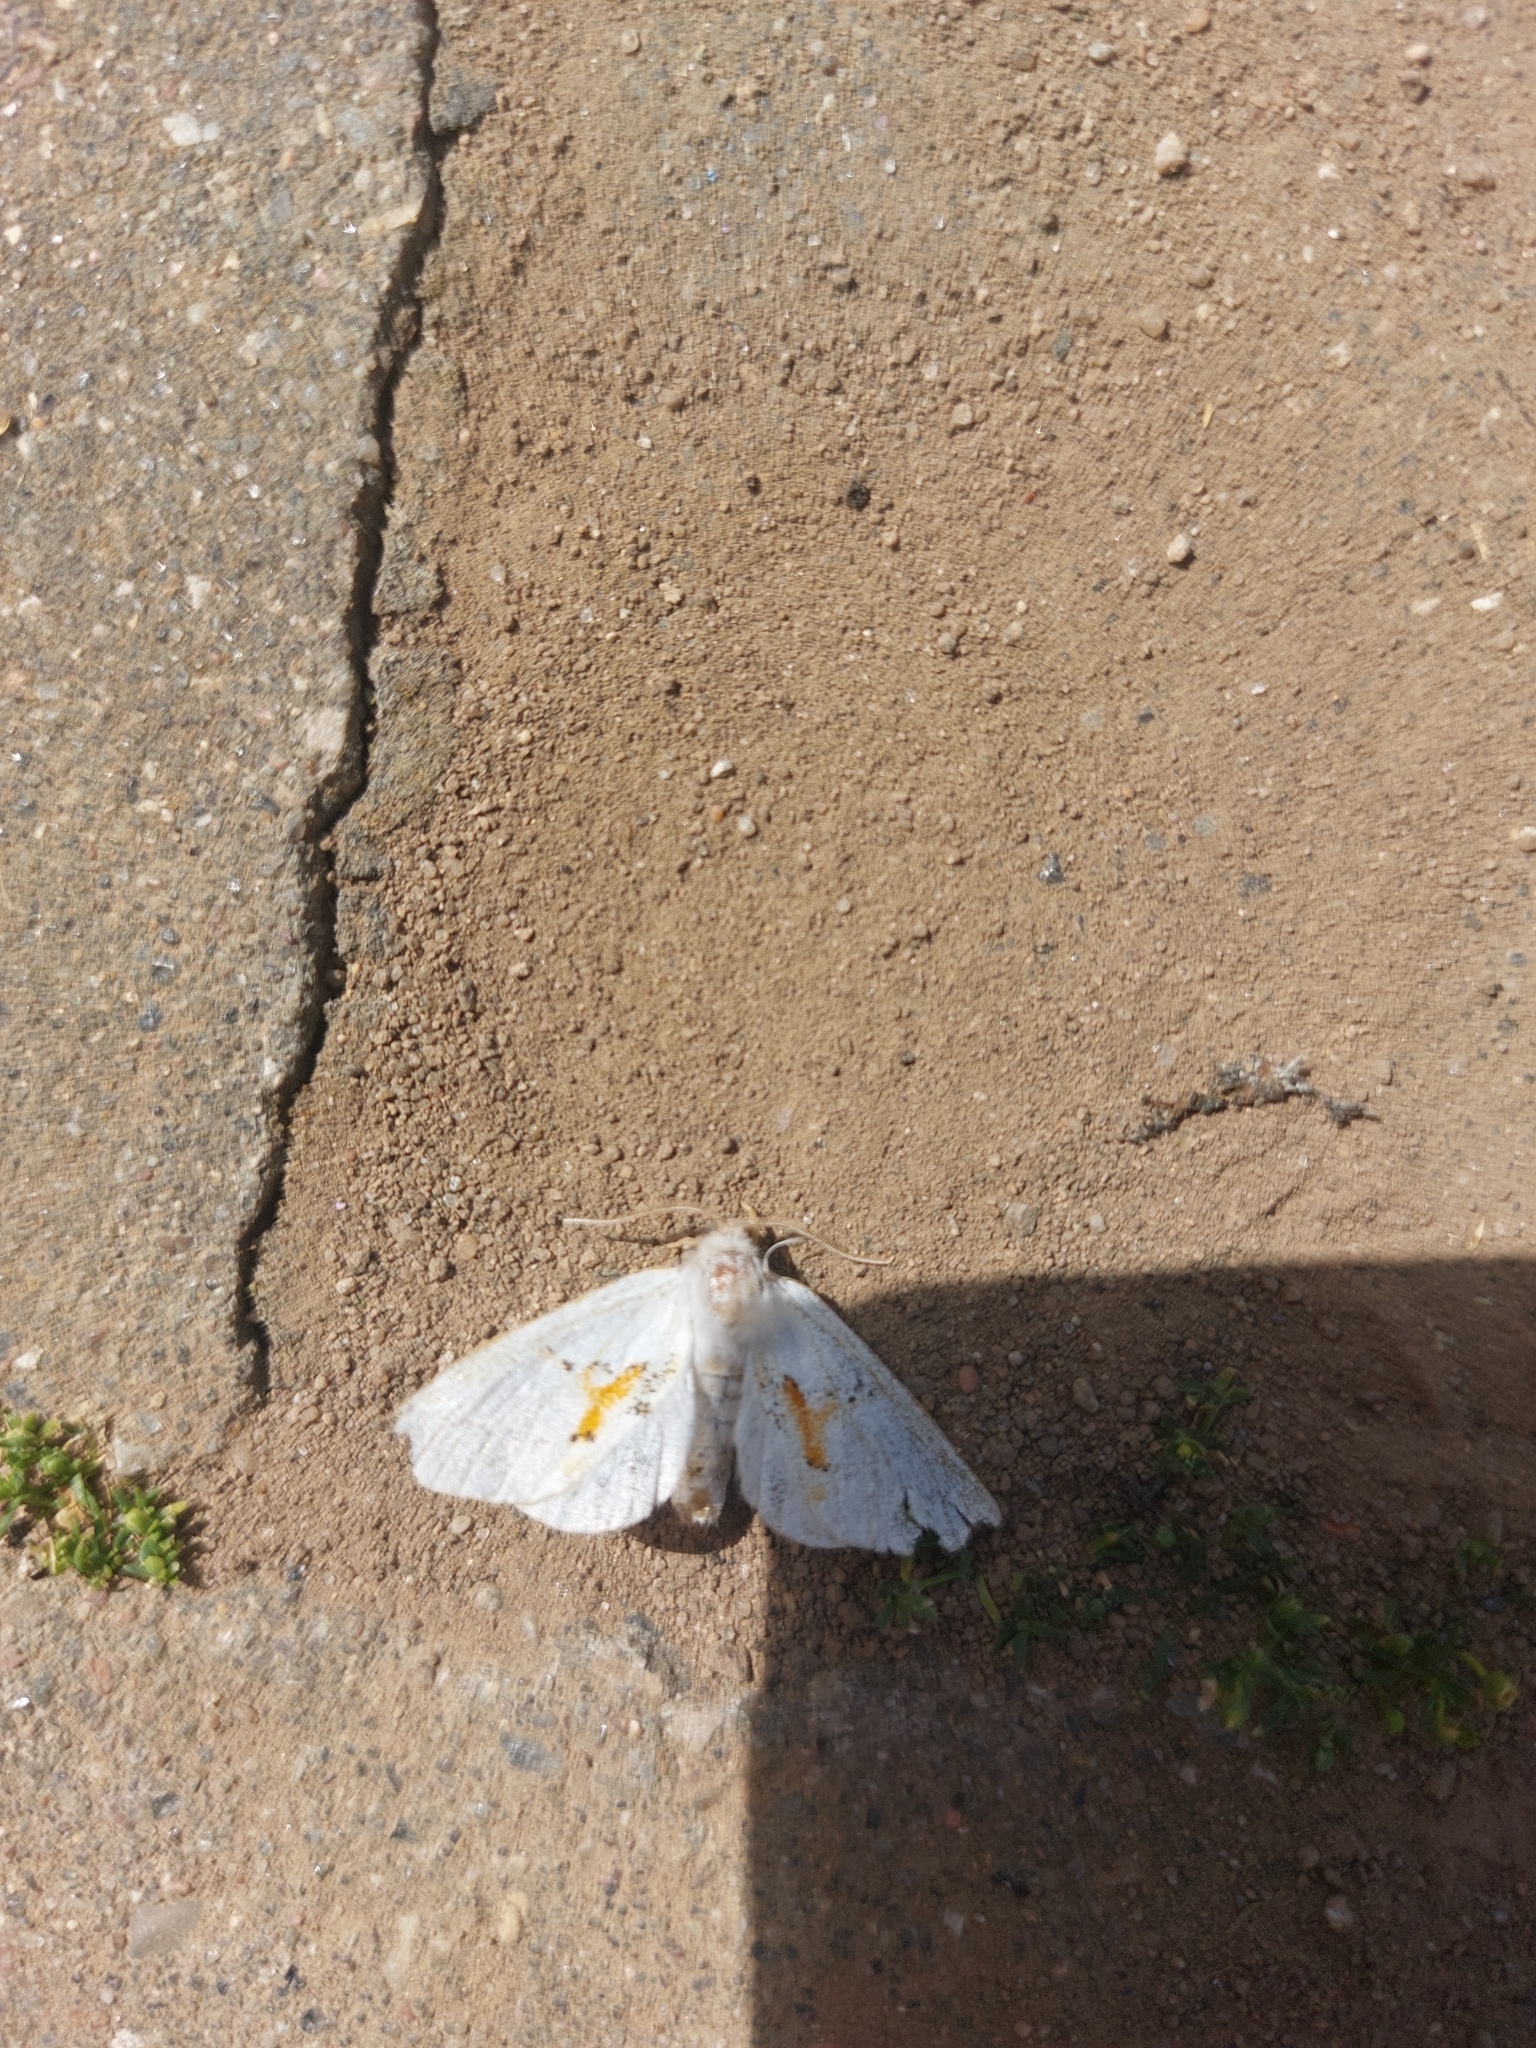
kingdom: Animalia
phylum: Arthropoda
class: Insecta
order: Lepidoptera
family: Notodontidae
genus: Leucodonta
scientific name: Leucodonta bicoloria
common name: White prominent
